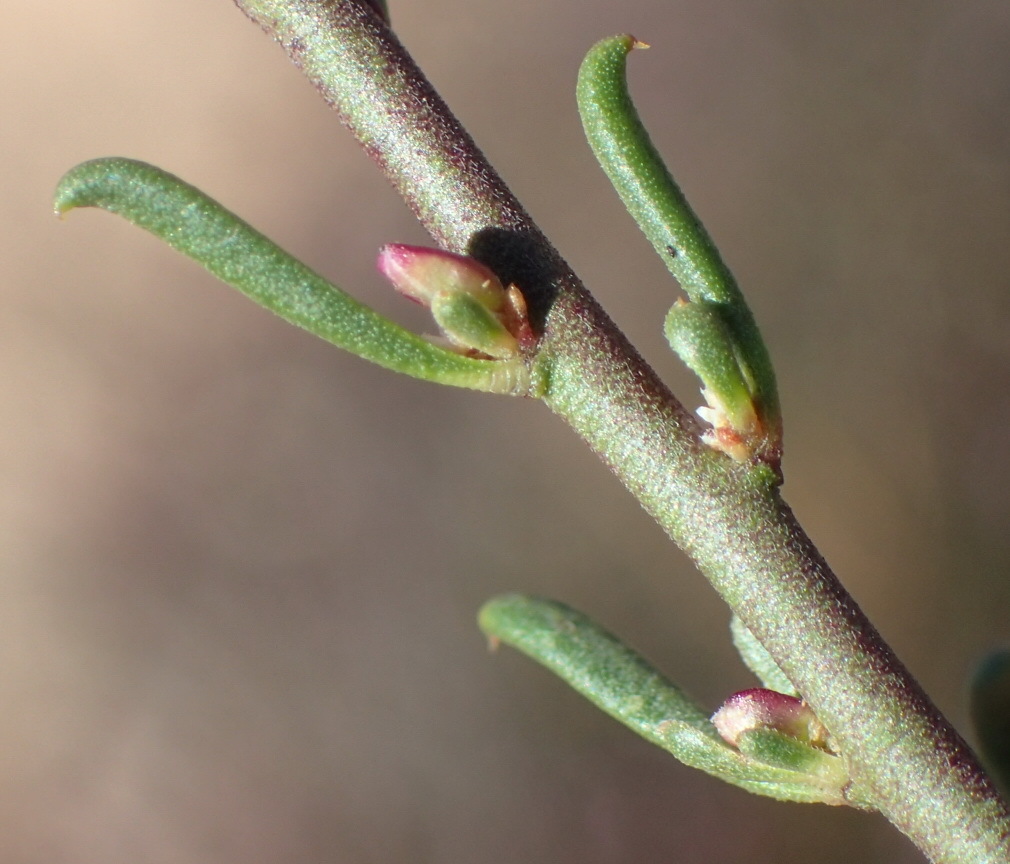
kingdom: Plantae
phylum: Tracheophyta
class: Magnoliopsida
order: Fabales
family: Polygalaceae
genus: Muraltia
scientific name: Muraltia dispersa
